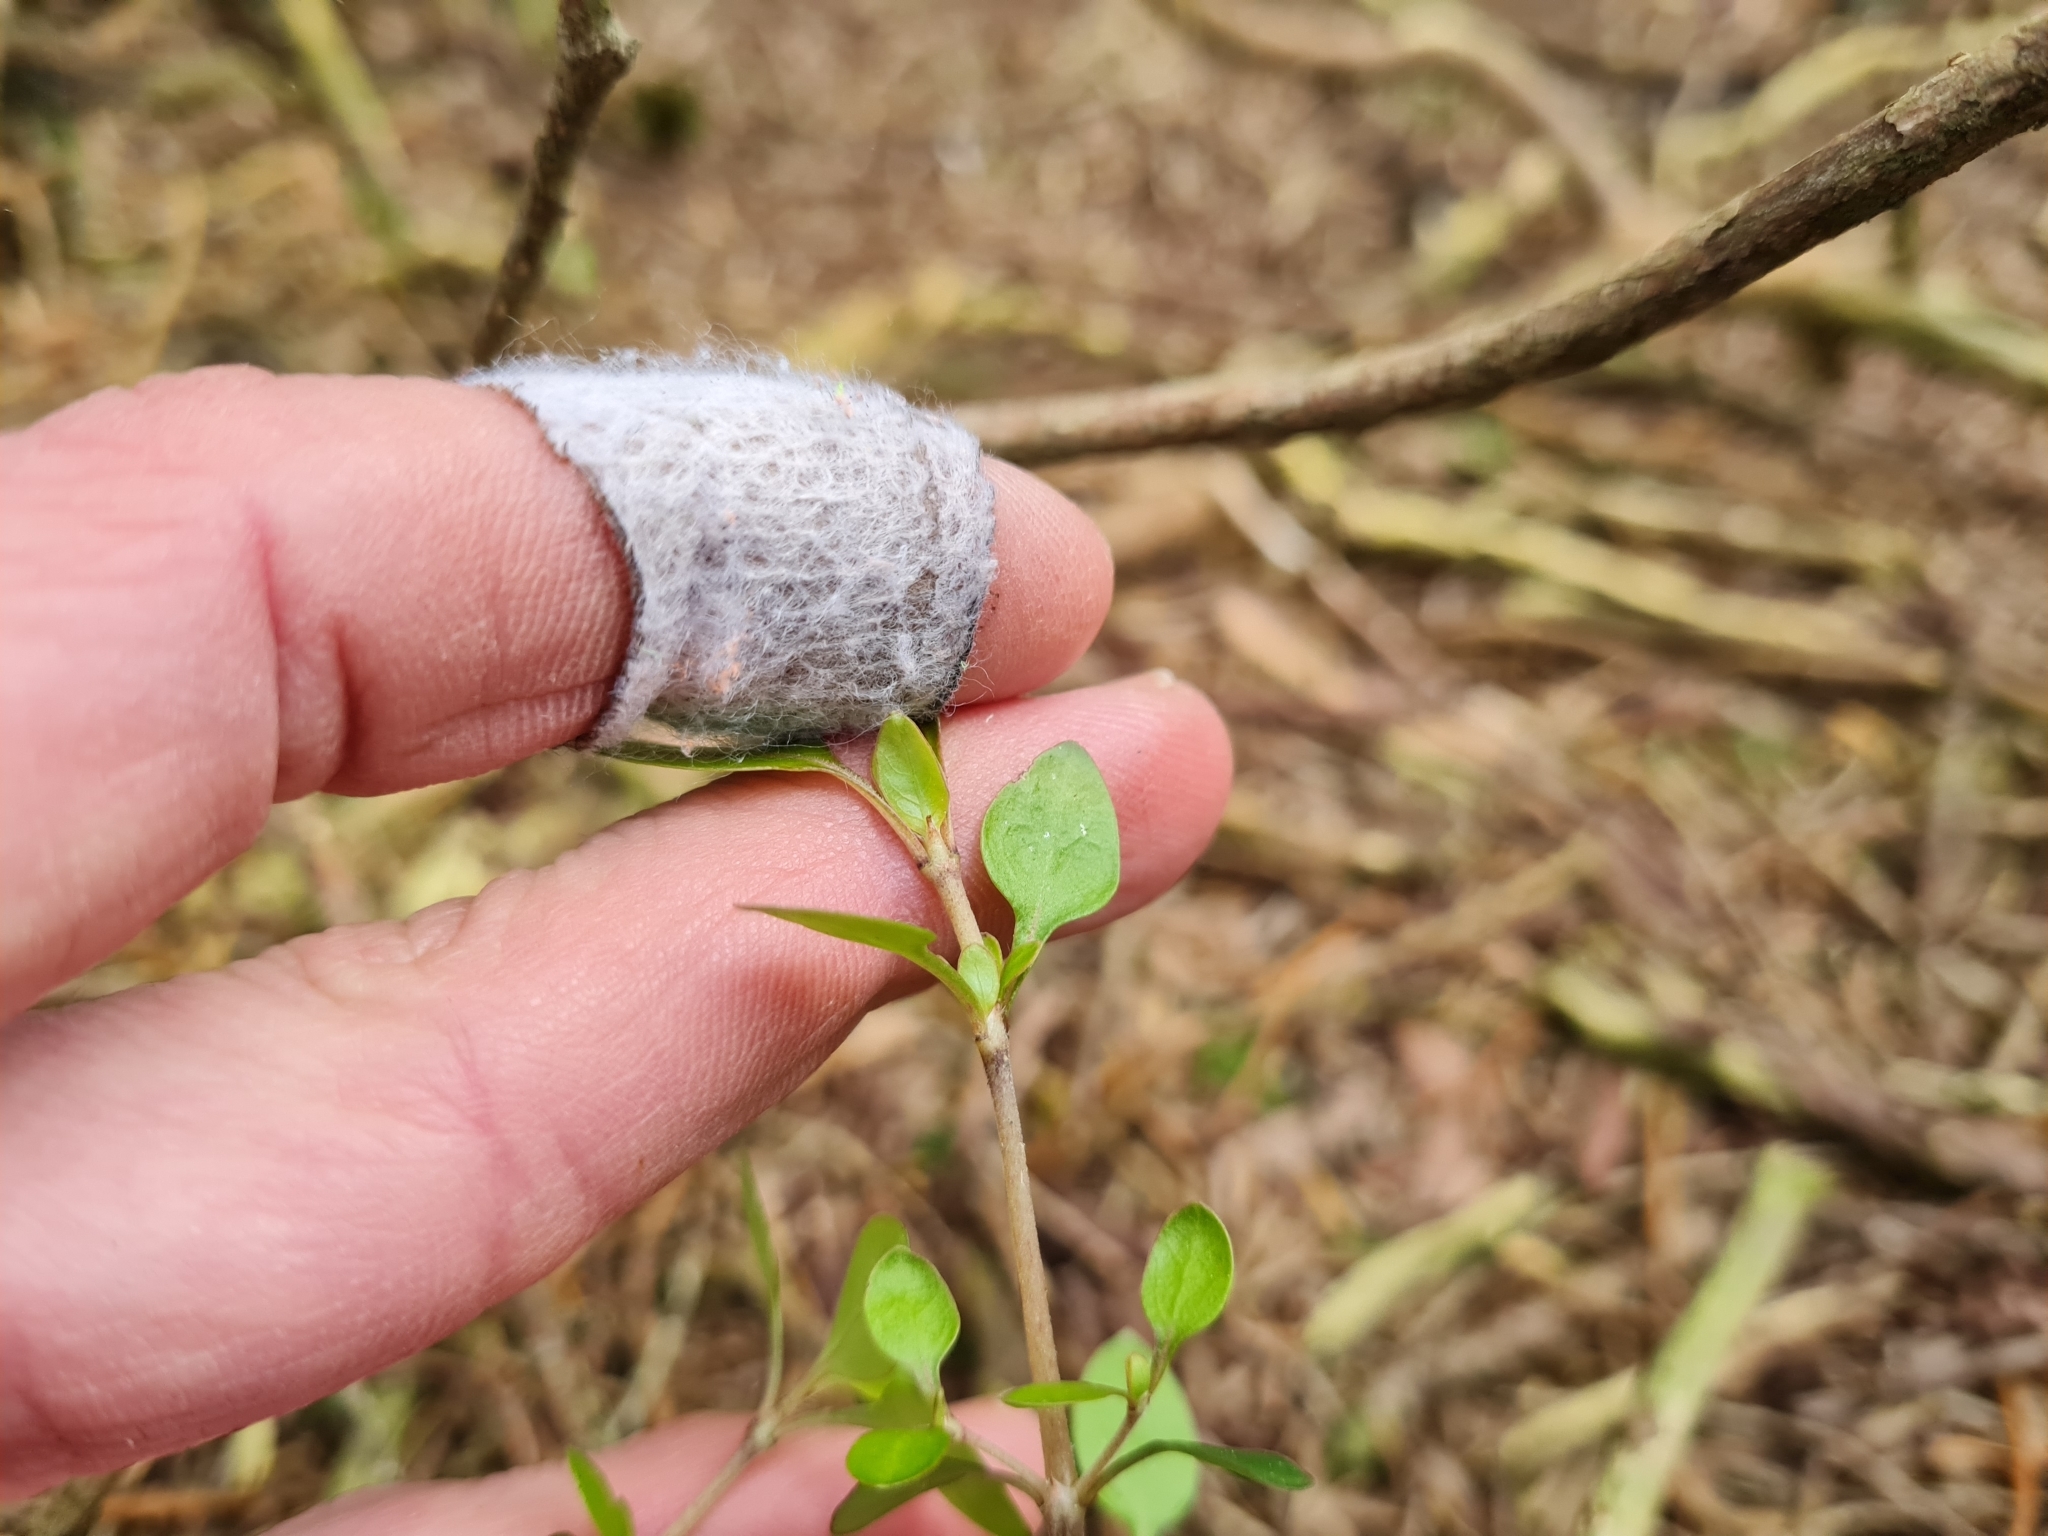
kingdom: Plantae
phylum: Tracheophyta
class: Magnoliopsida
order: Gentianales
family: Rubiaceae
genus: Coprosma
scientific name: Coprosma cunninghamii
